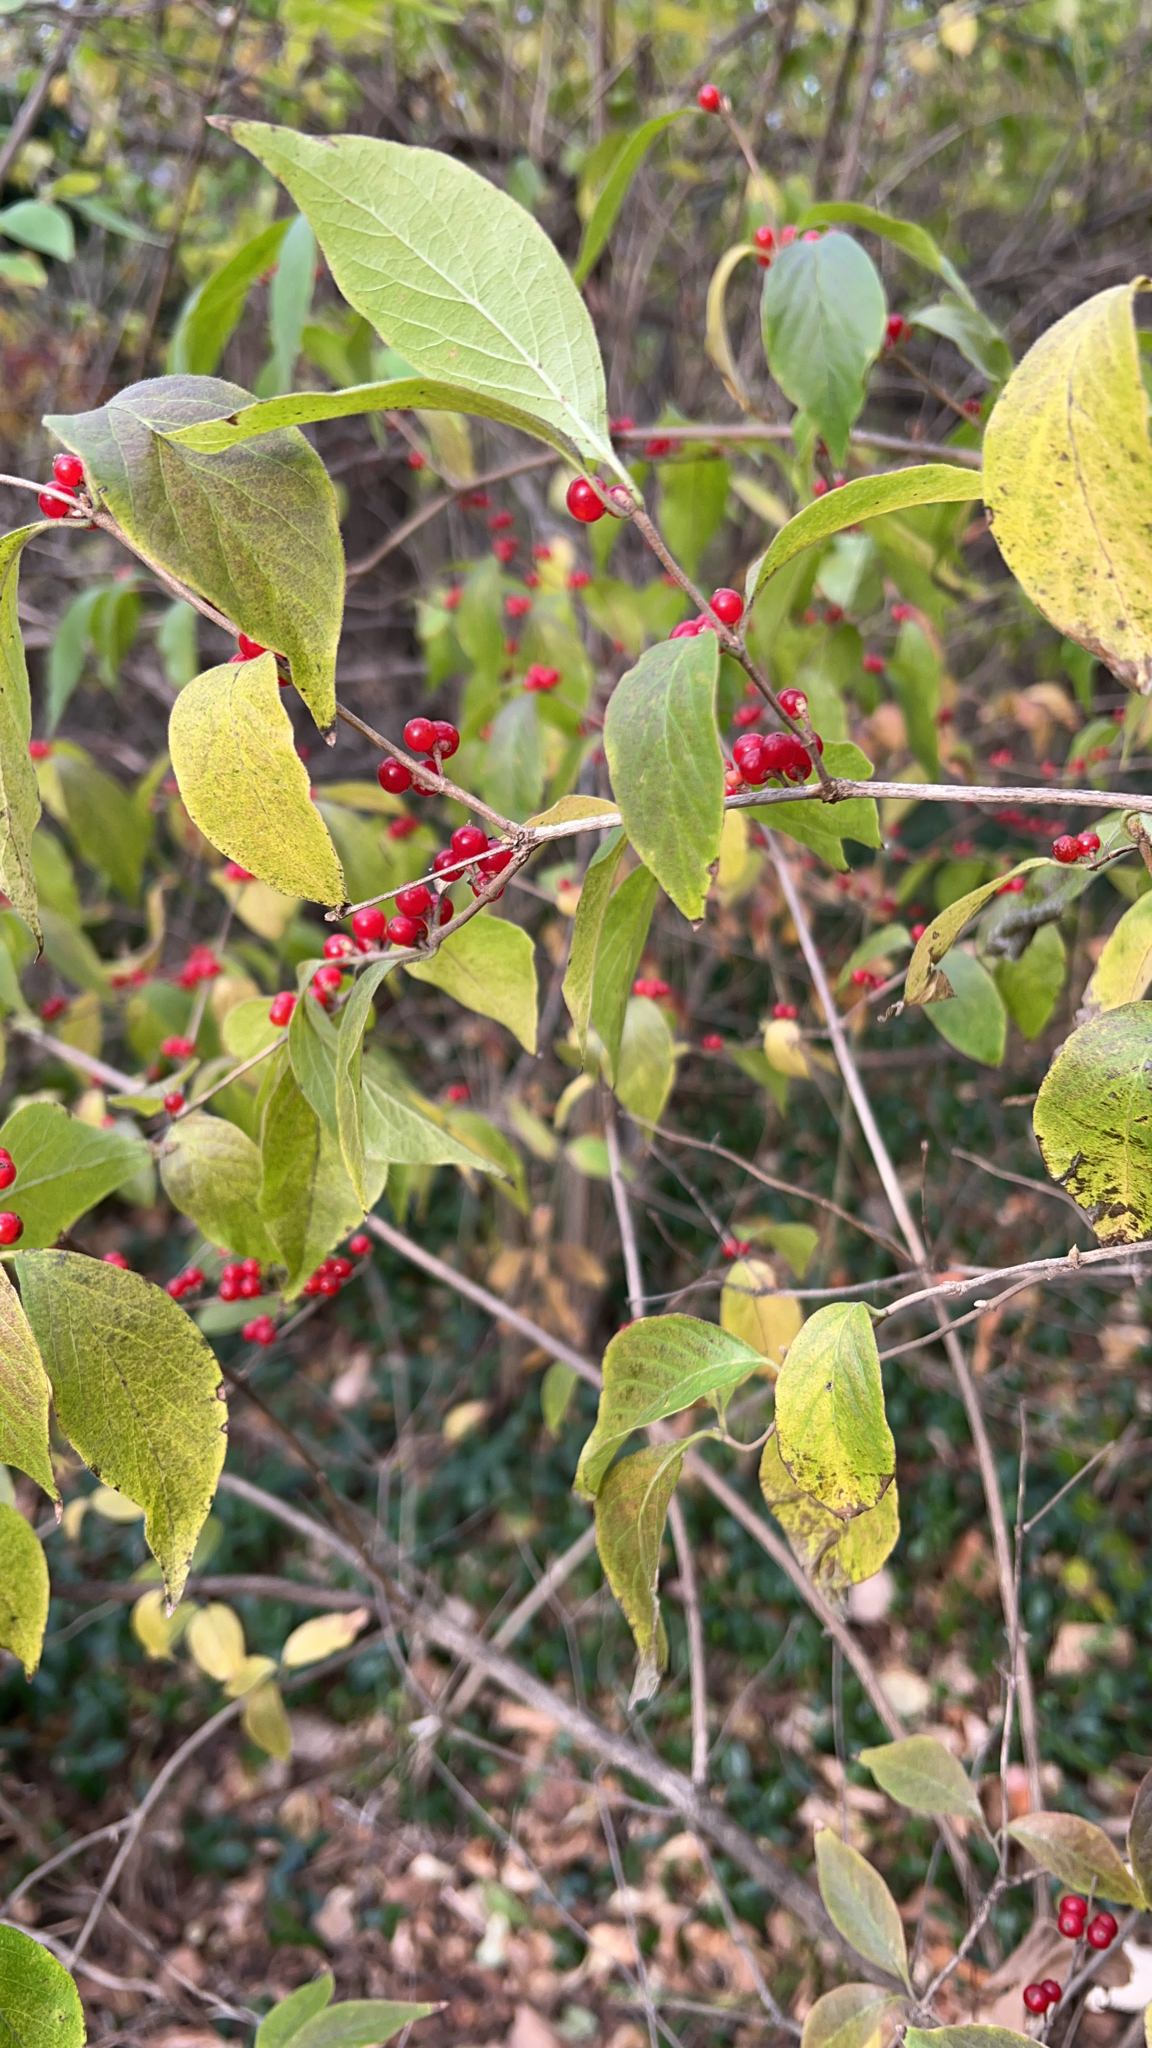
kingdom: Plantae
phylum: Tracheophyta
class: Magnoliopsida
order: Dipsacales
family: Caprifoliaceae
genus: Lonicera
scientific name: Lonicera maackii
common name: Amur honeysuckle
